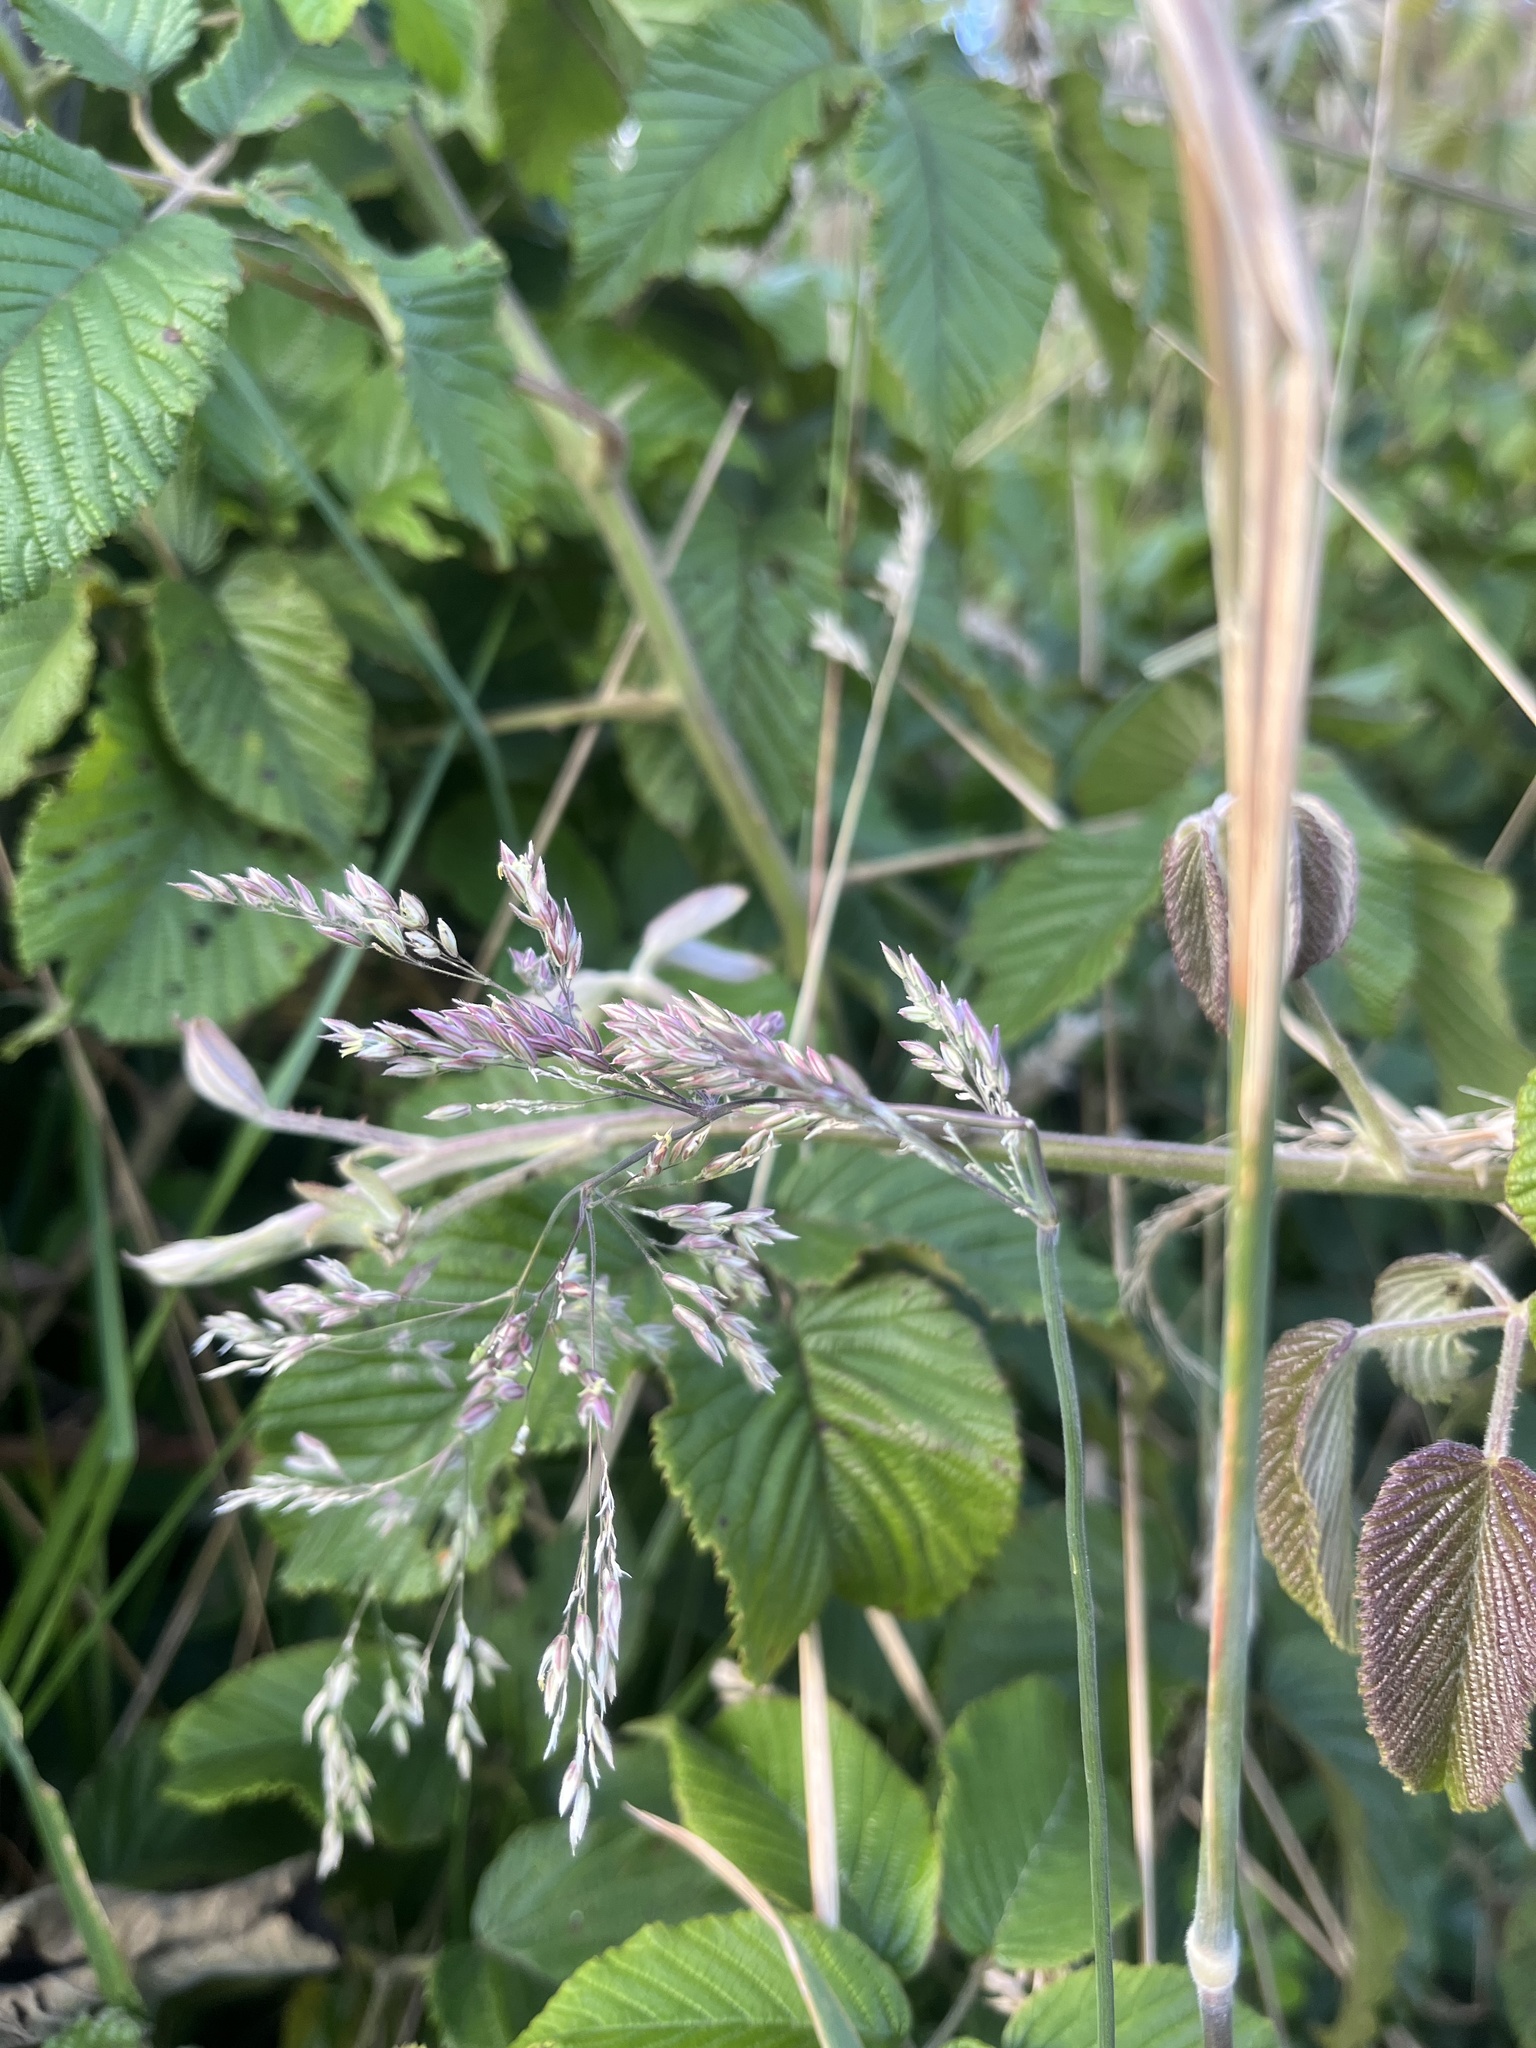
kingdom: Plantae
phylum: Tracheophyta
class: Liliopsida
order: Poales
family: Poaceae
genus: Holcus
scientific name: Holcus lanatus
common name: Yorkshire-fog
